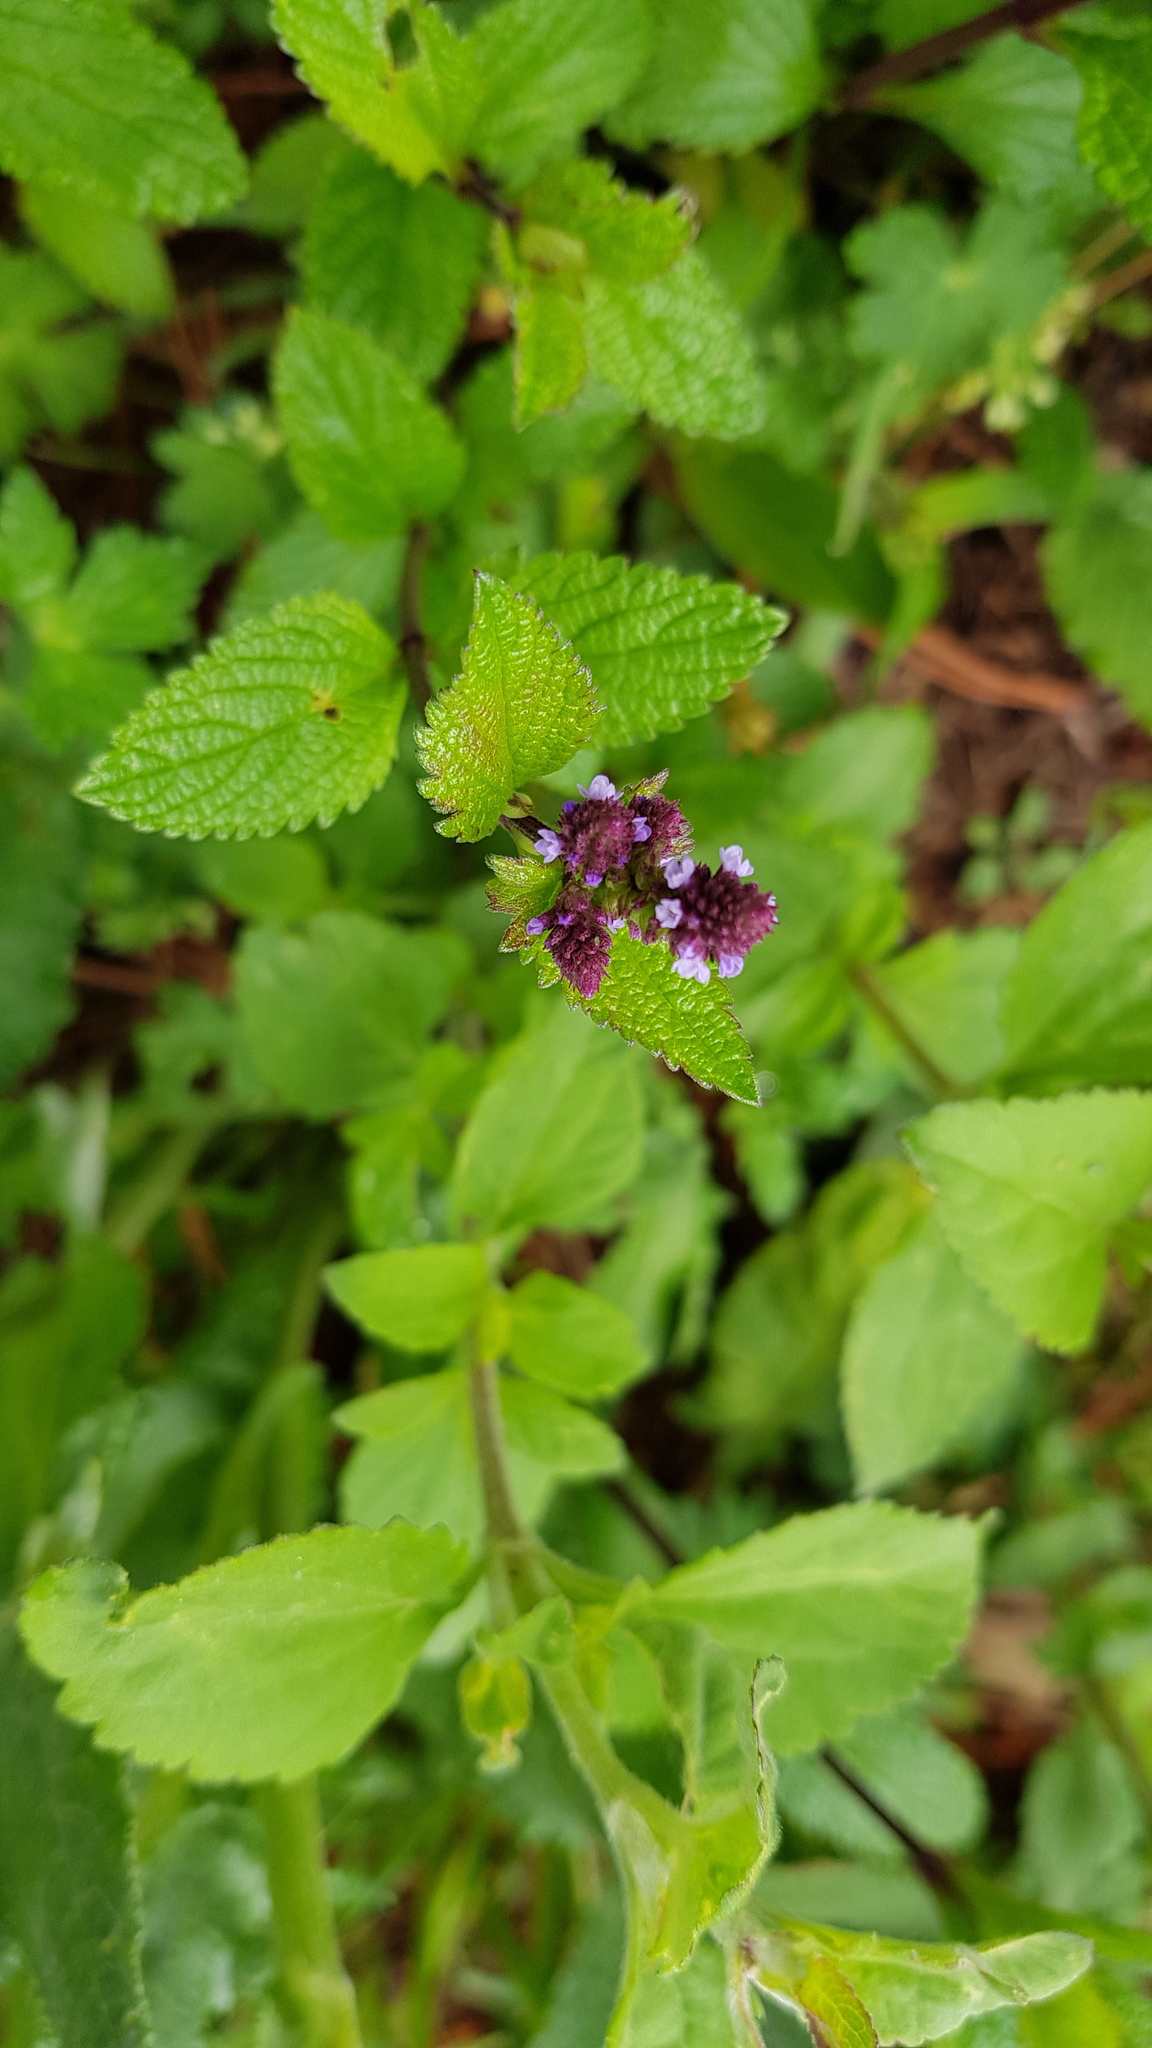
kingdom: Plantae
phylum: Tracheophyta
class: Magnoliopsida
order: Lamiales
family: Verbenaceae
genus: Verbena
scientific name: Verbena recta
